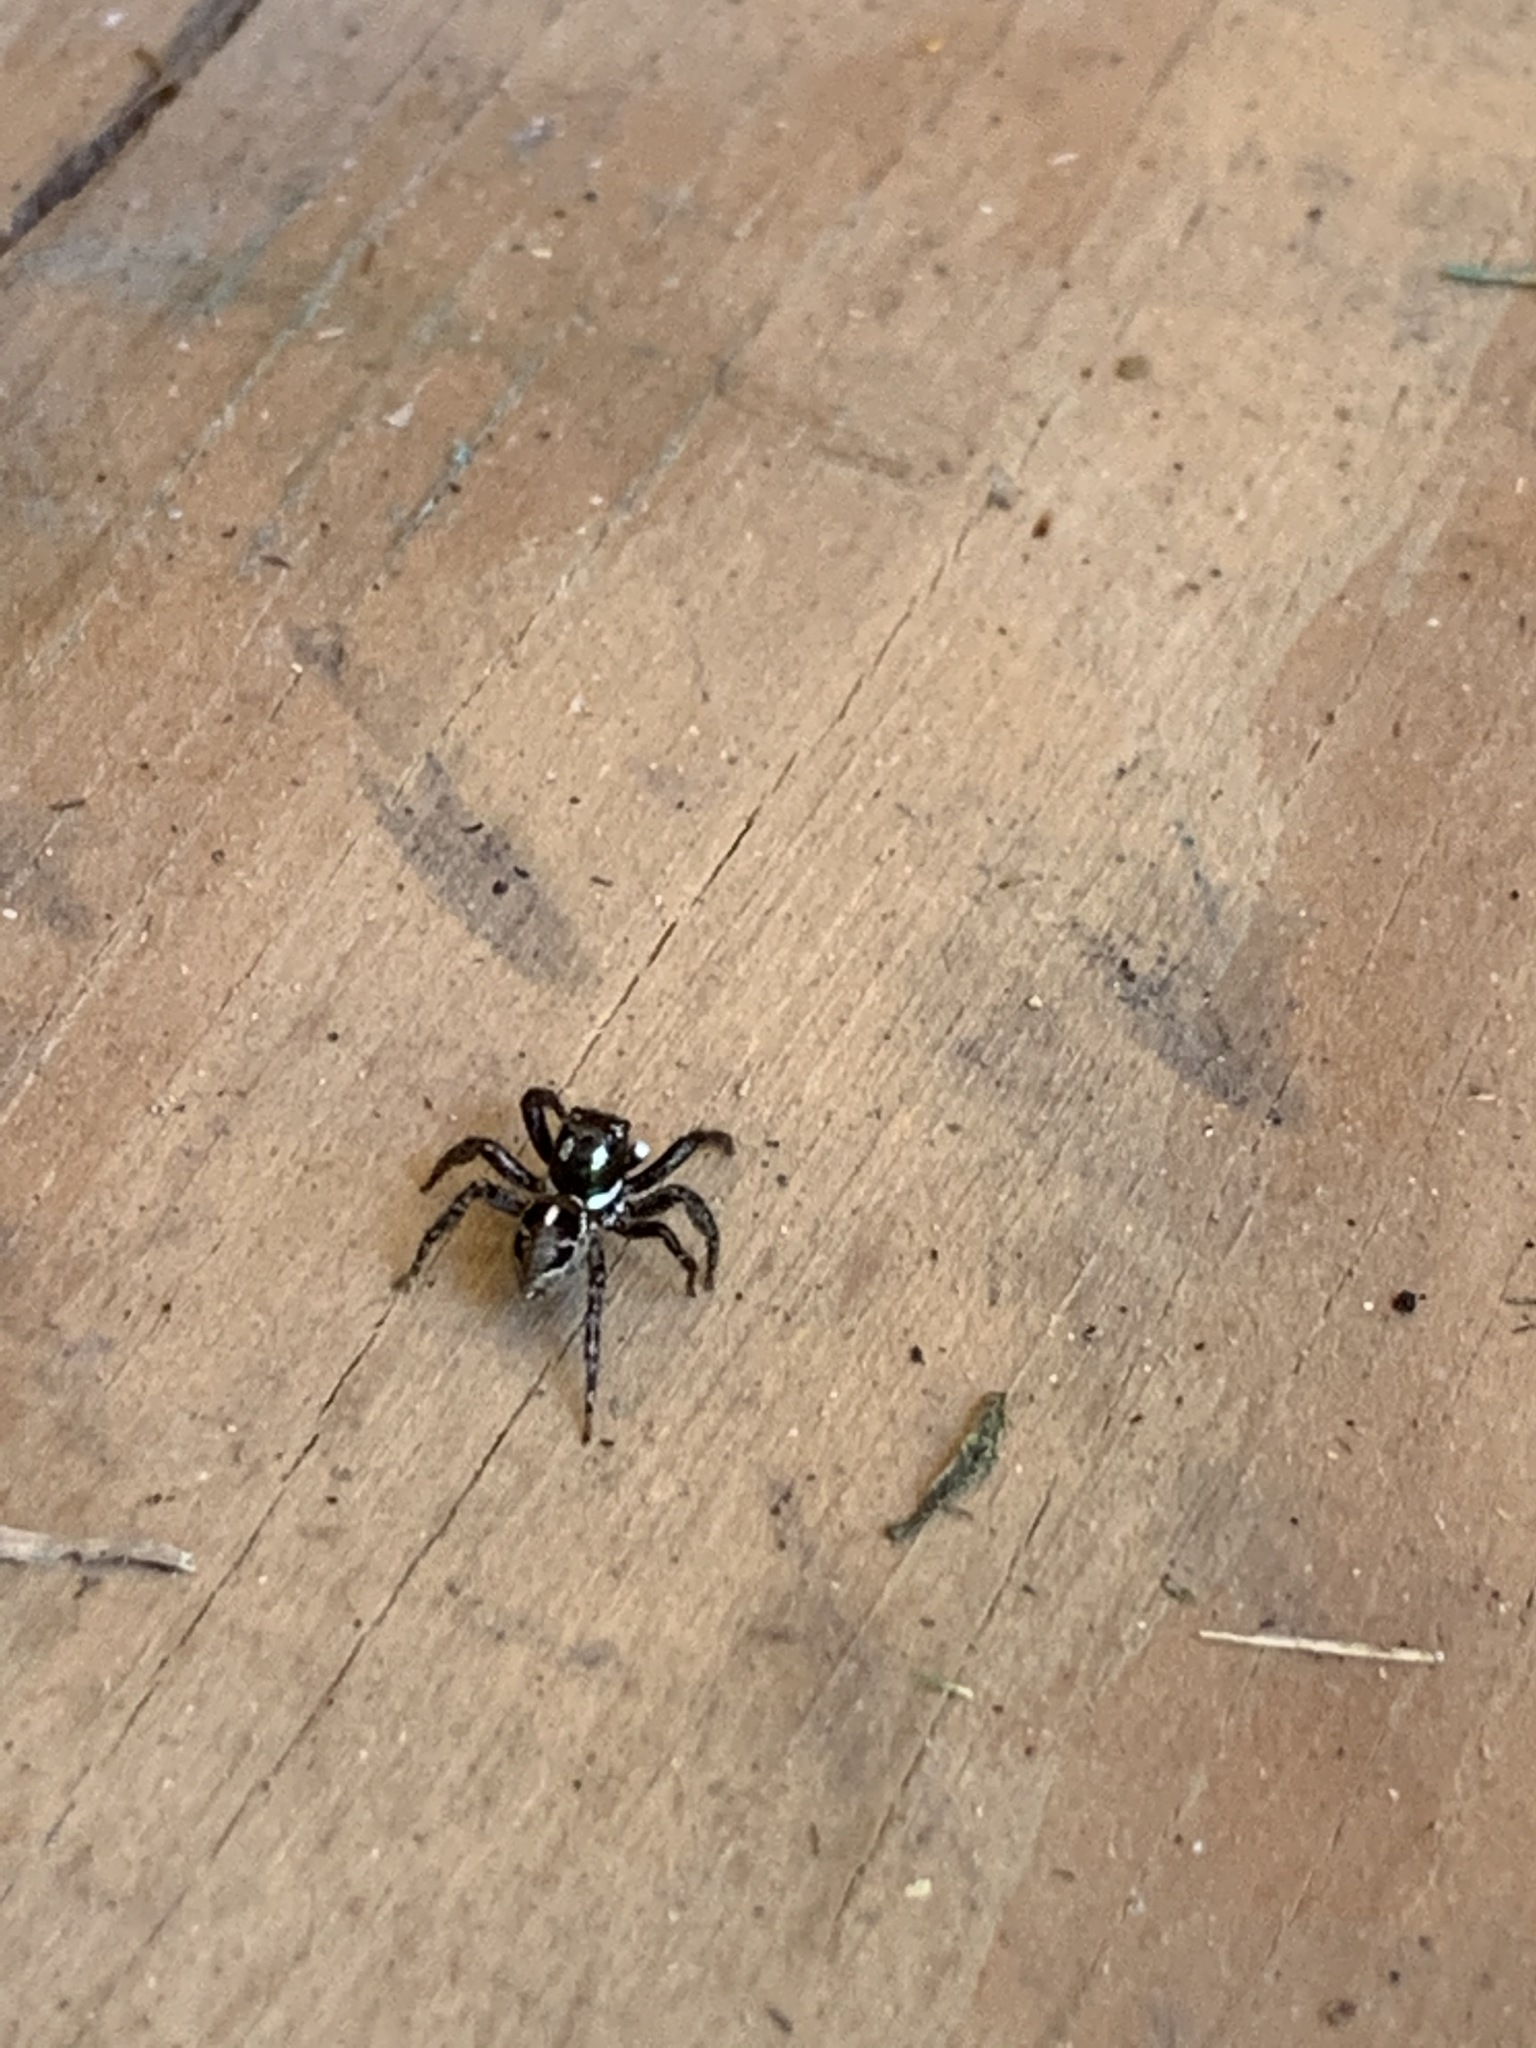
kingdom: Animalia
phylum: Arthropoda
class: Arachnida
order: Araneae
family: Salticidae
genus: Anasaitis
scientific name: Anasaitis canosa
